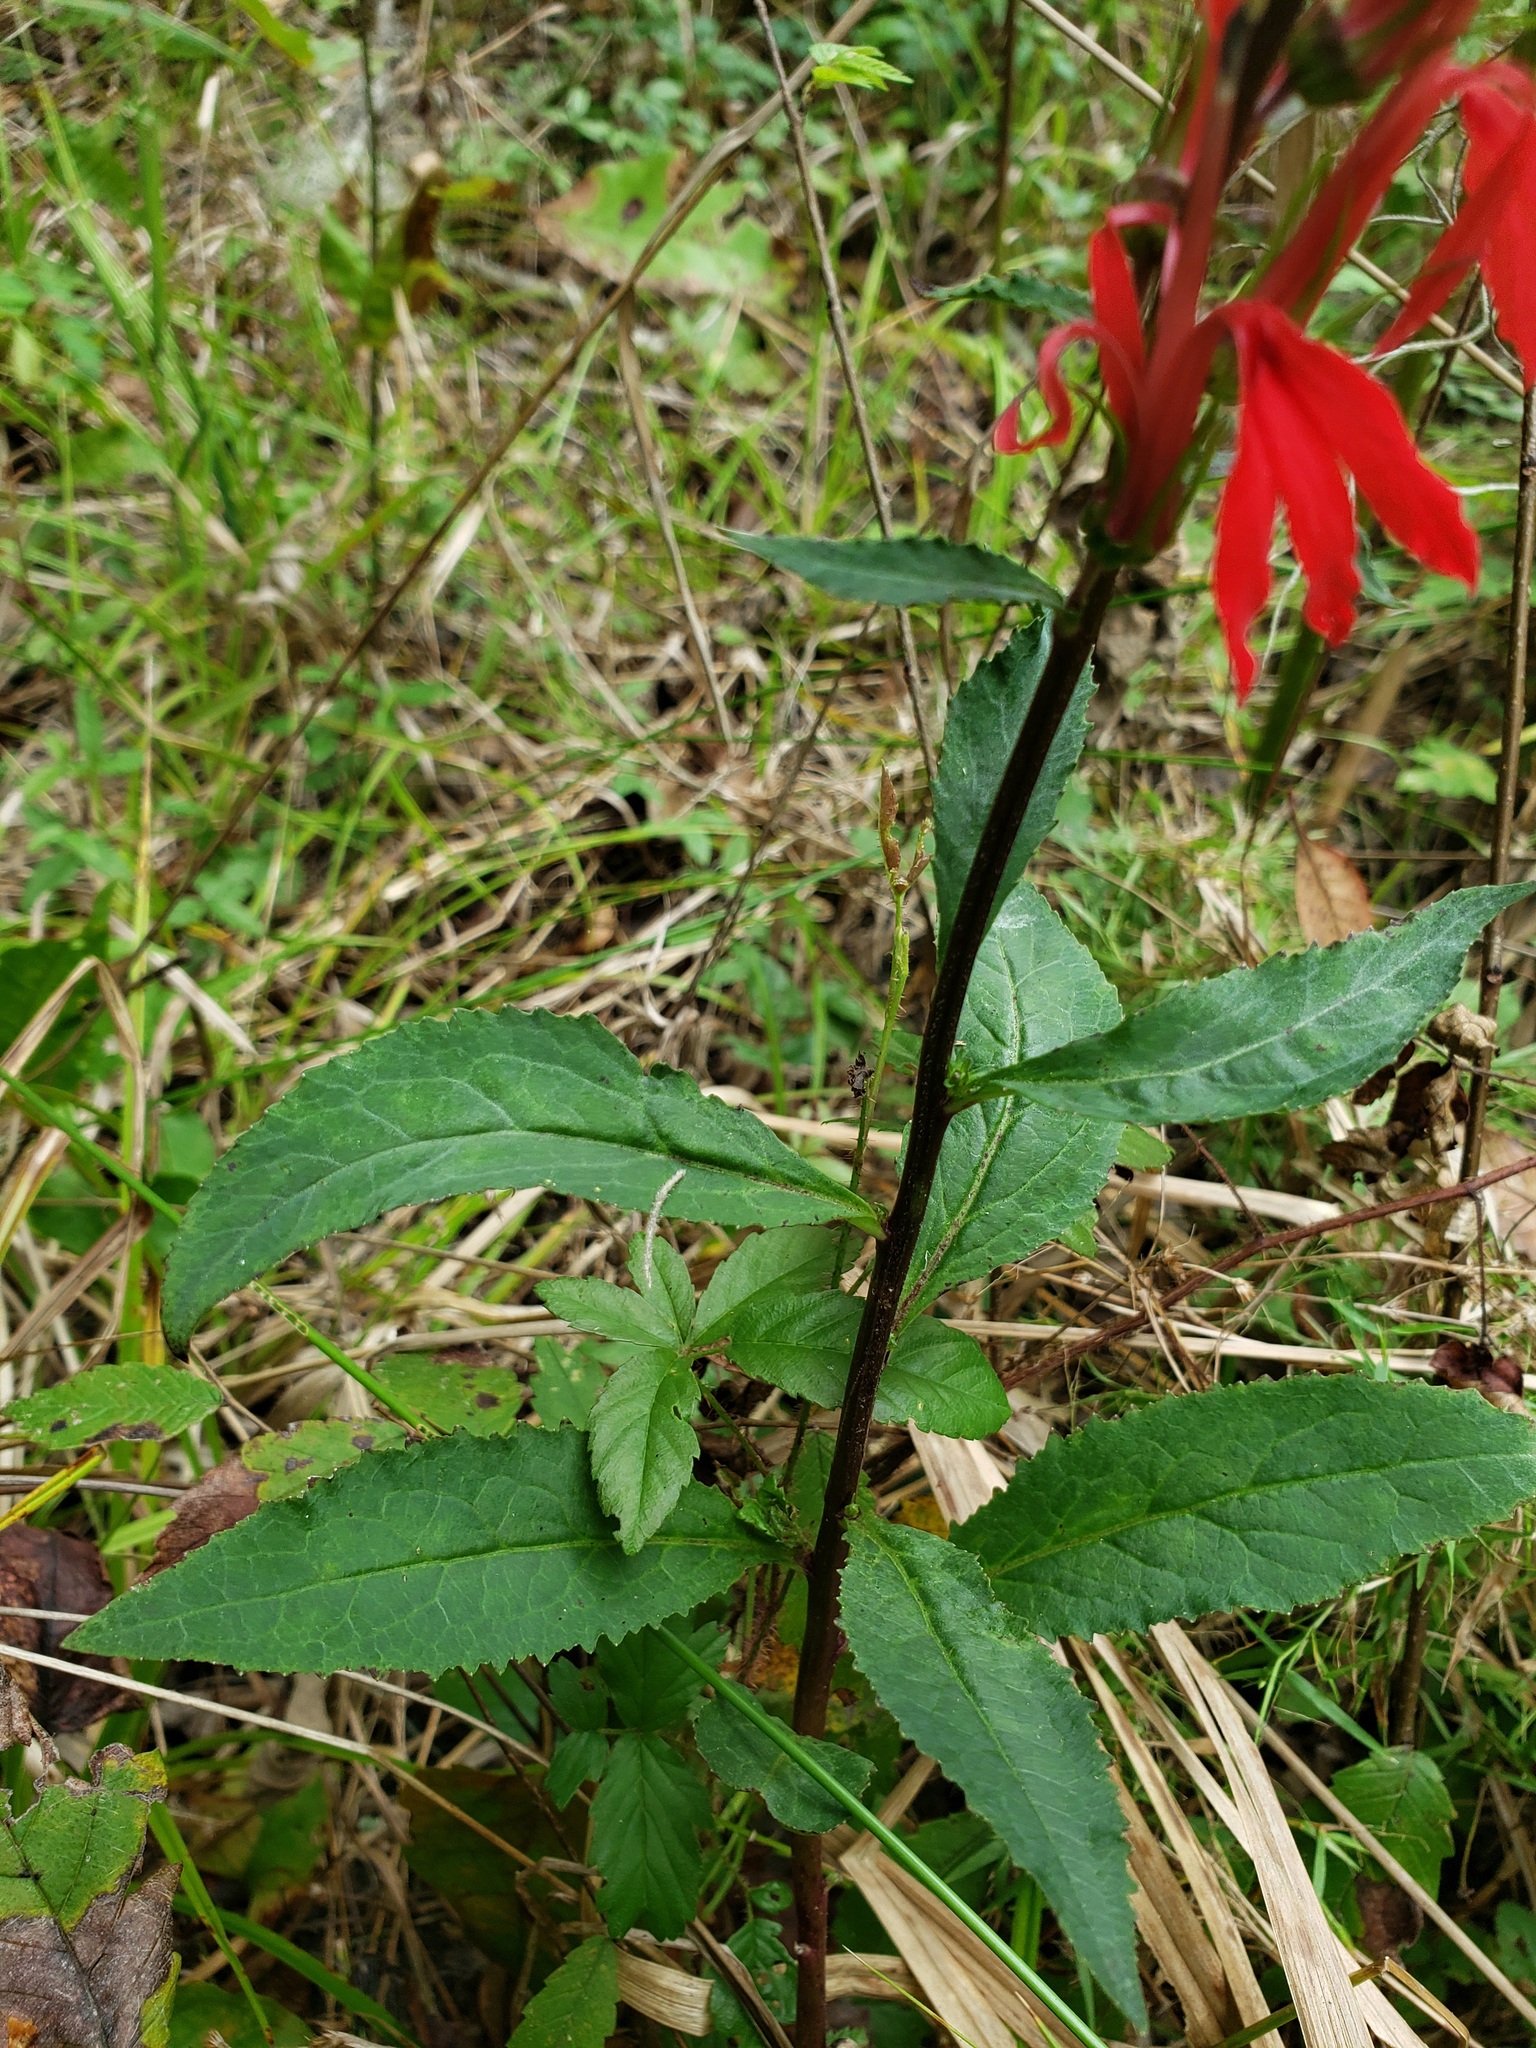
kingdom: Plantae
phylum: Tracheophyta
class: Magnoliopsida
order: Asterales
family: Campanulaceae
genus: Lobelia
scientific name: Lobelia cardinalis
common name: Cardinal flower
